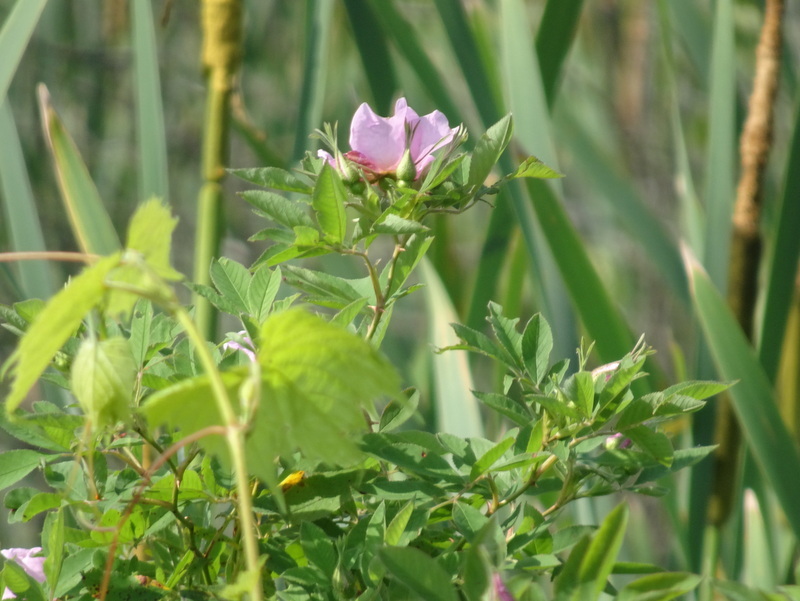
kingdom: Plantae
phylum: Tracheophyta
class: Magnoliopsida
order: Rosales
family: Rosaceae
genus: Rosa
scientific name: Rosa palustris
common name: Swamp rose
